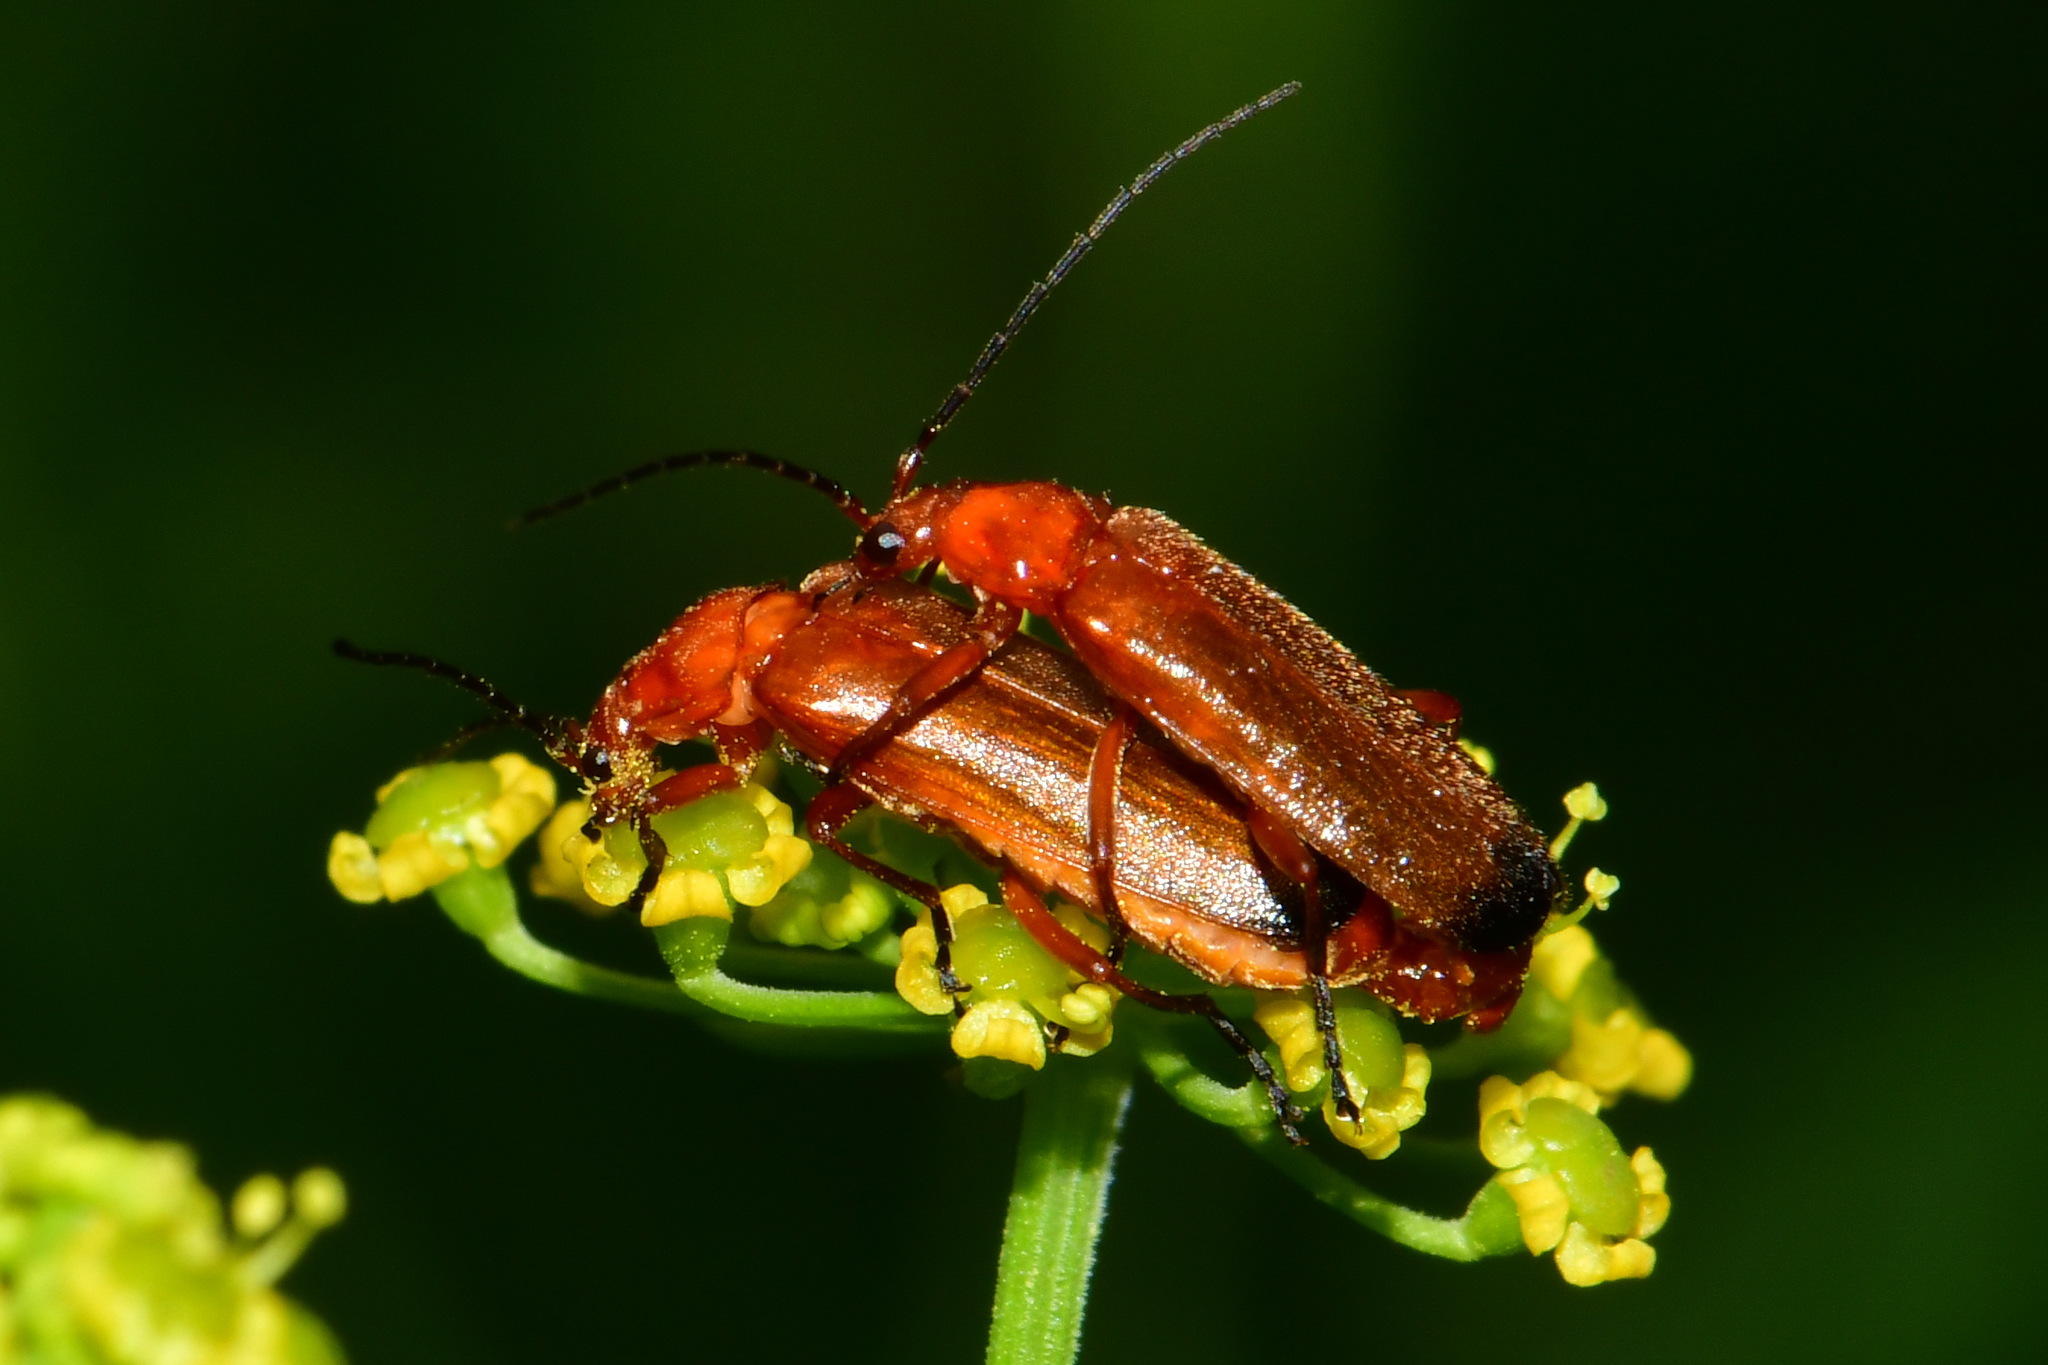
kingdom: Animalia
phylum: Arthropoda
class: Insecta
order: Coleoptera
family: Cantharidae
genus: Rhagonycha
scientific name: Rhagonycha fulva
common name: Common red soldier beetle
